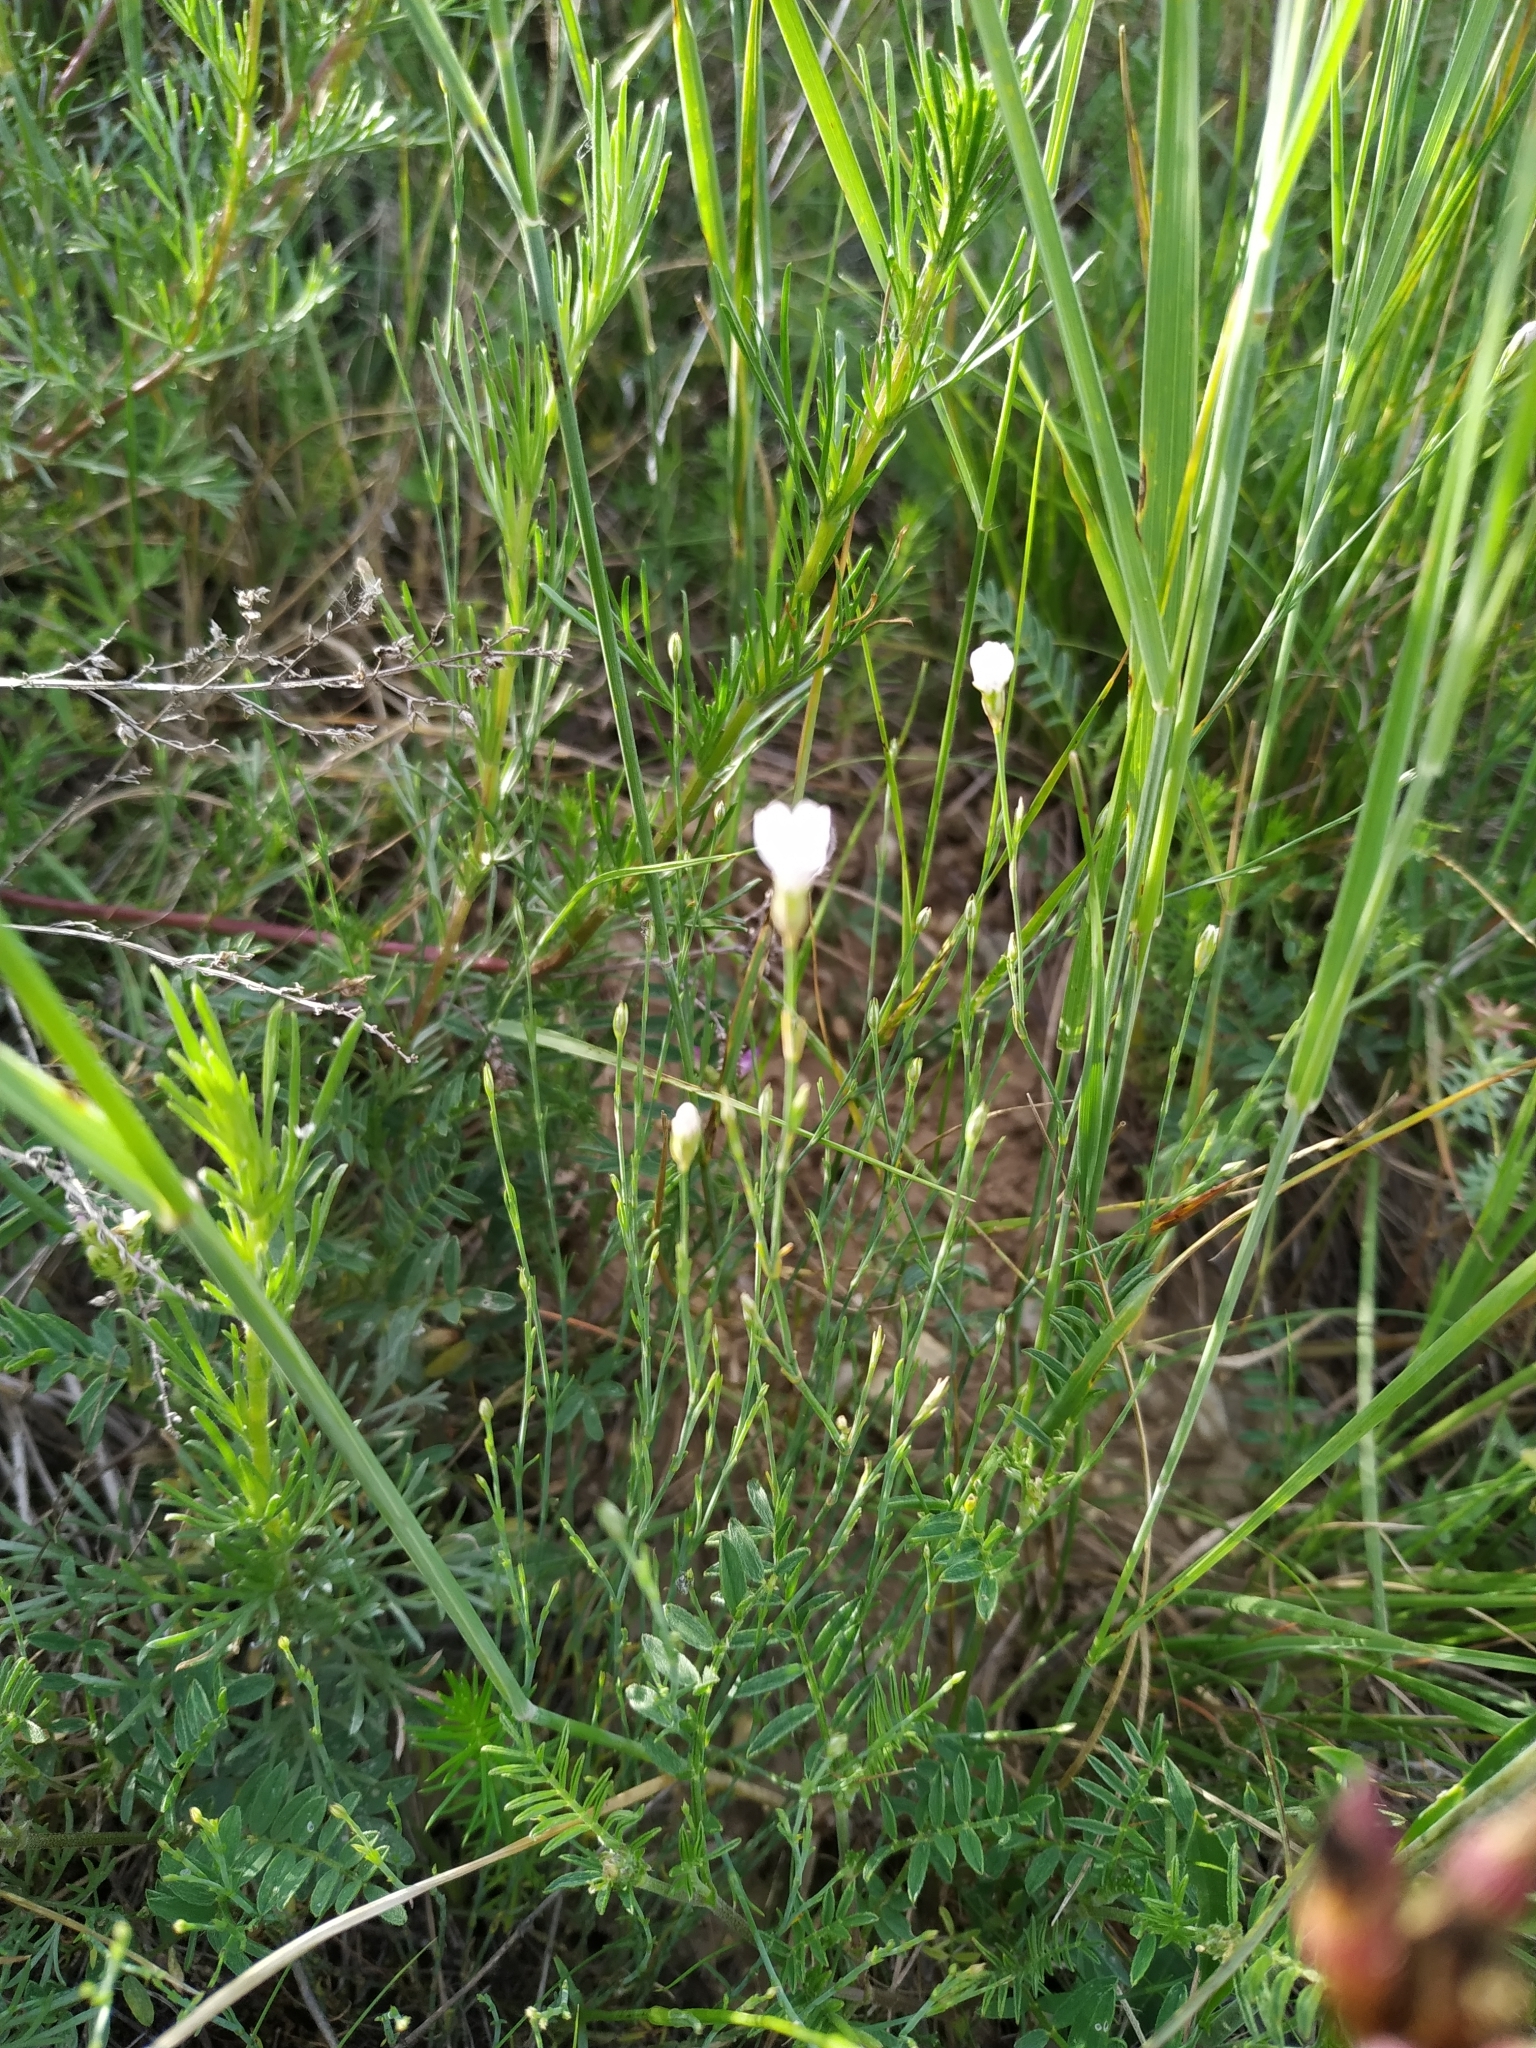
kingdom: Plantae
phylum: Tracheophyta
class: Magnoliopsida
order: Caryophyllales
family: Caryophyllaceae
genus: Petrorhagia
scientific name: Petrorhagia saxifraga
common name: Tunicflower
